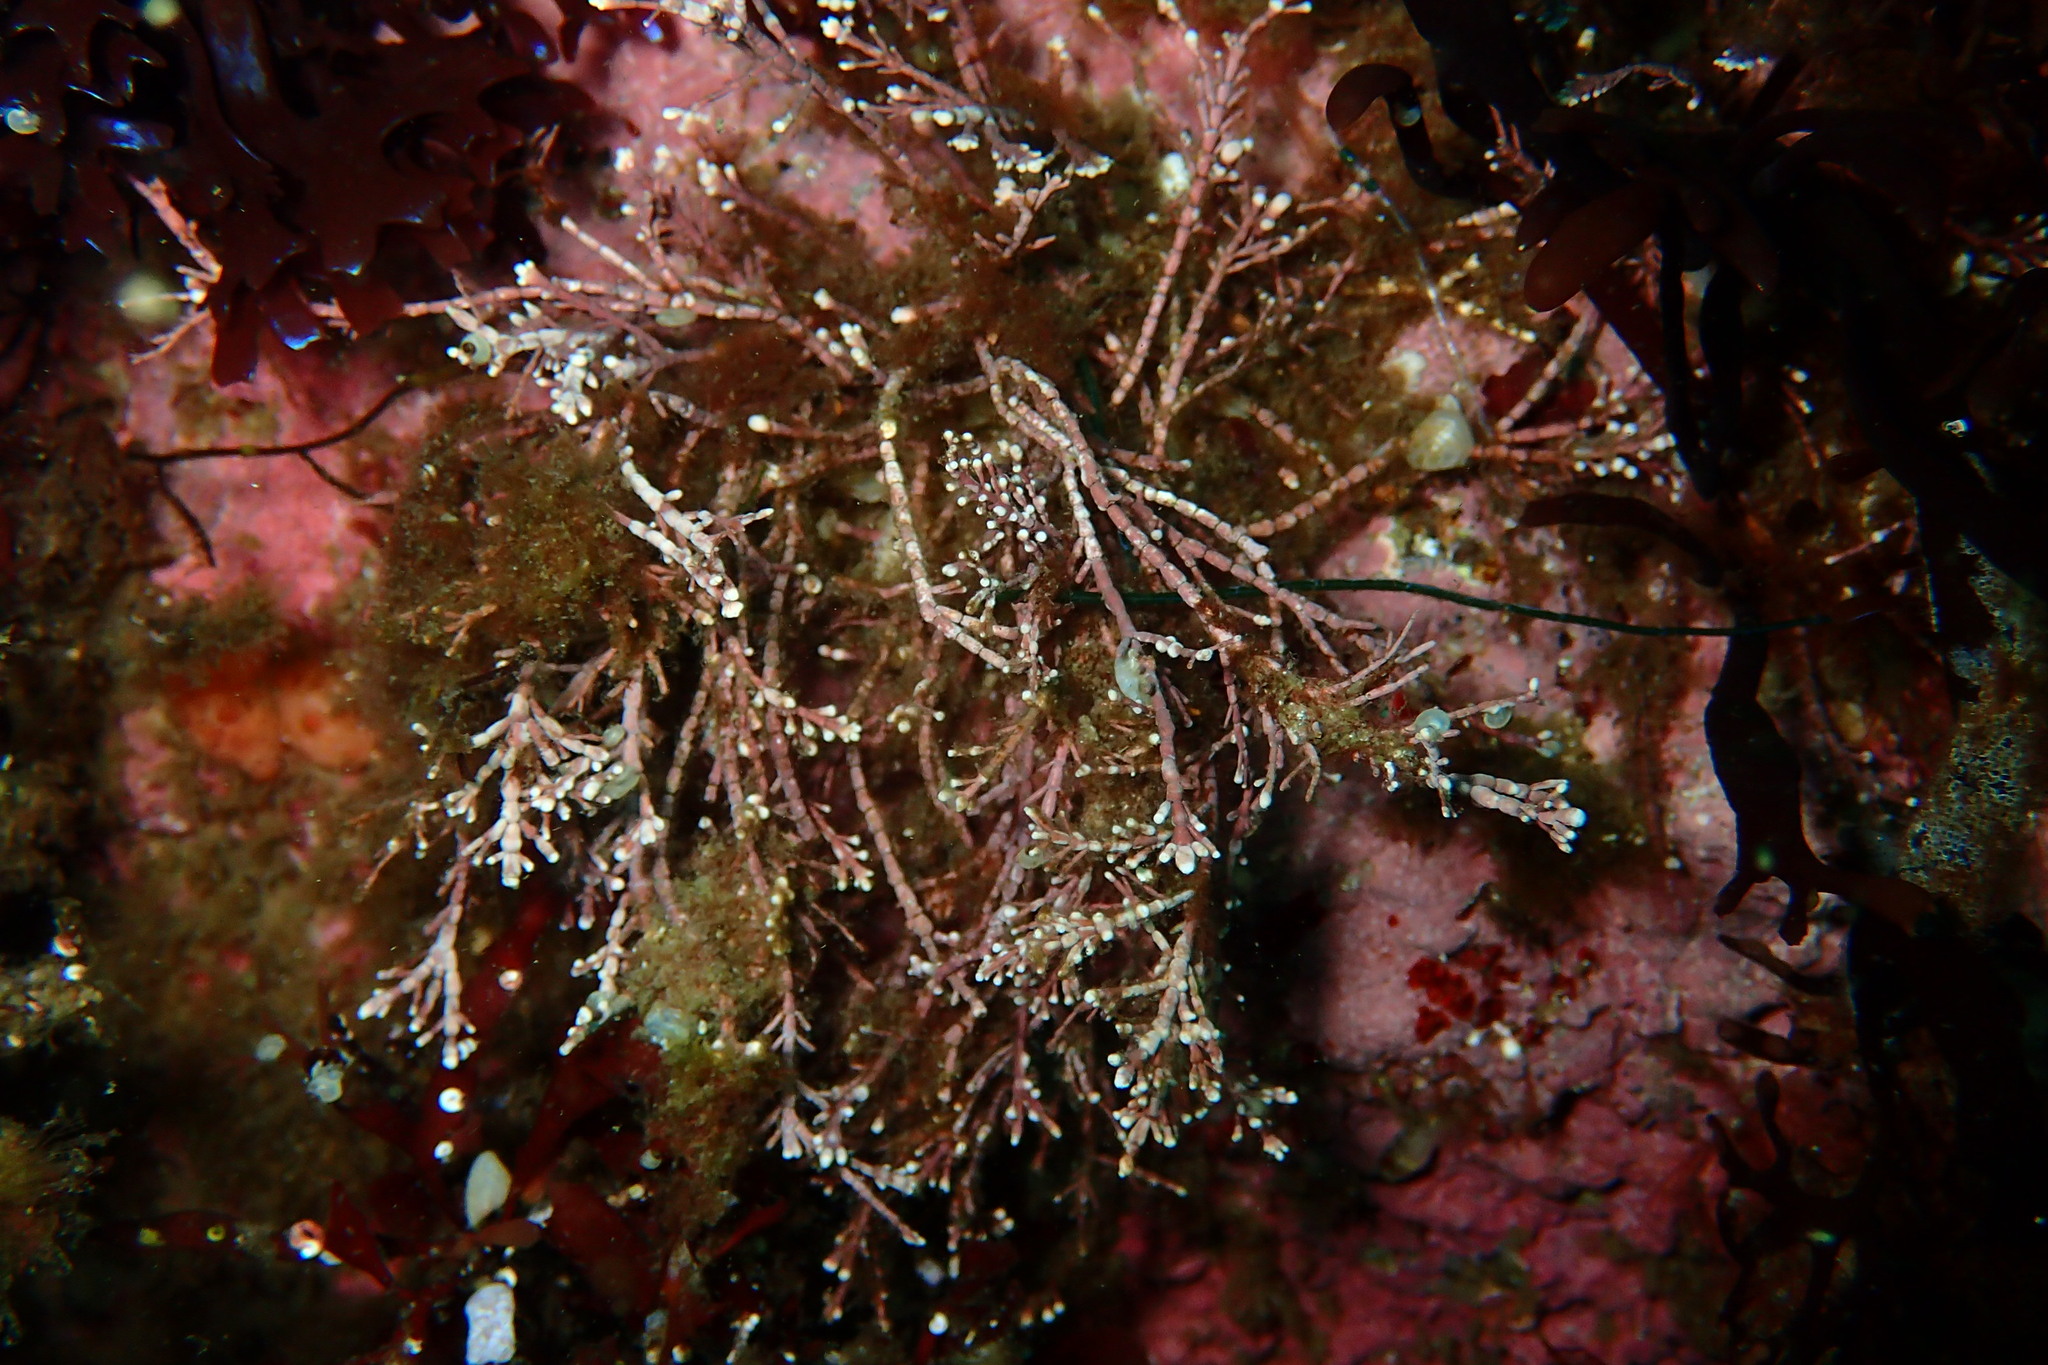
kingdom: Plantae
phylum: Rhodophyta
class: Florideophyceae
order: Corallinales
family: Corallinaceae
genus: Corallina
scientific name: Corallina officinalis
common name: Coral weed
